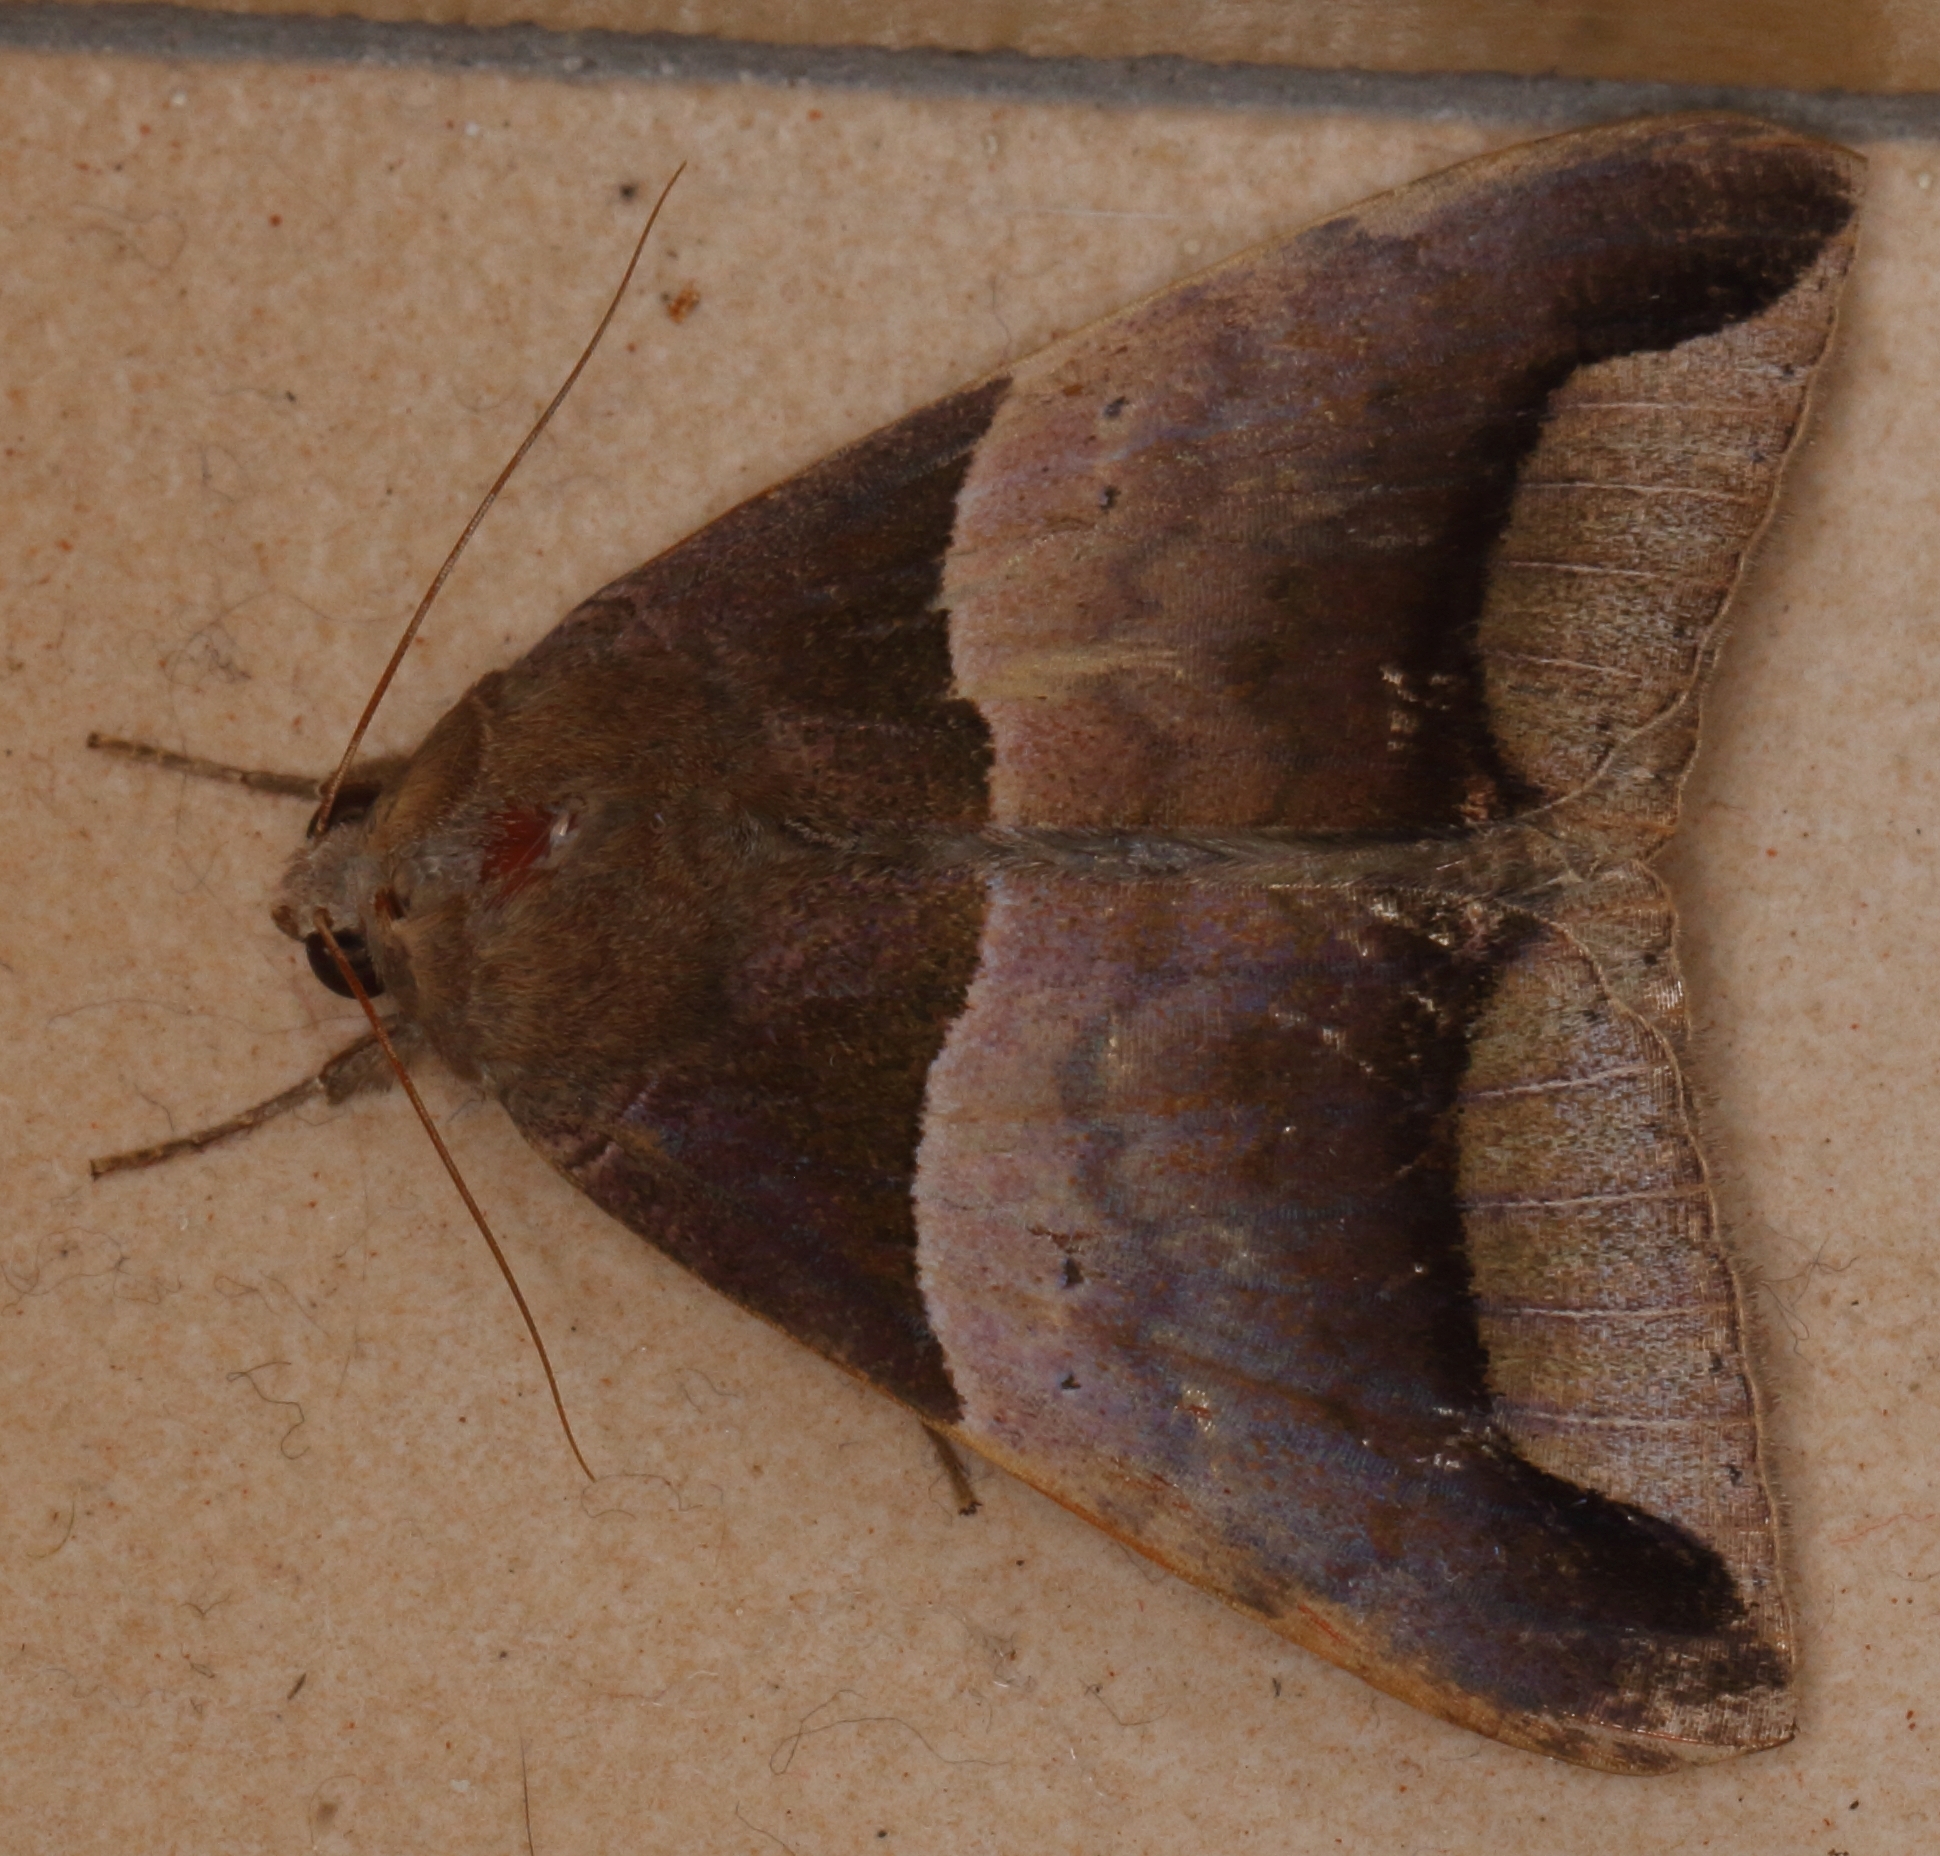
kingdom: Animalia
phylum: Arthropoda
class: Insecta
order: Lepidoptera
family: Erebidae
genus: Achaea
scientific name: Achaea echo
